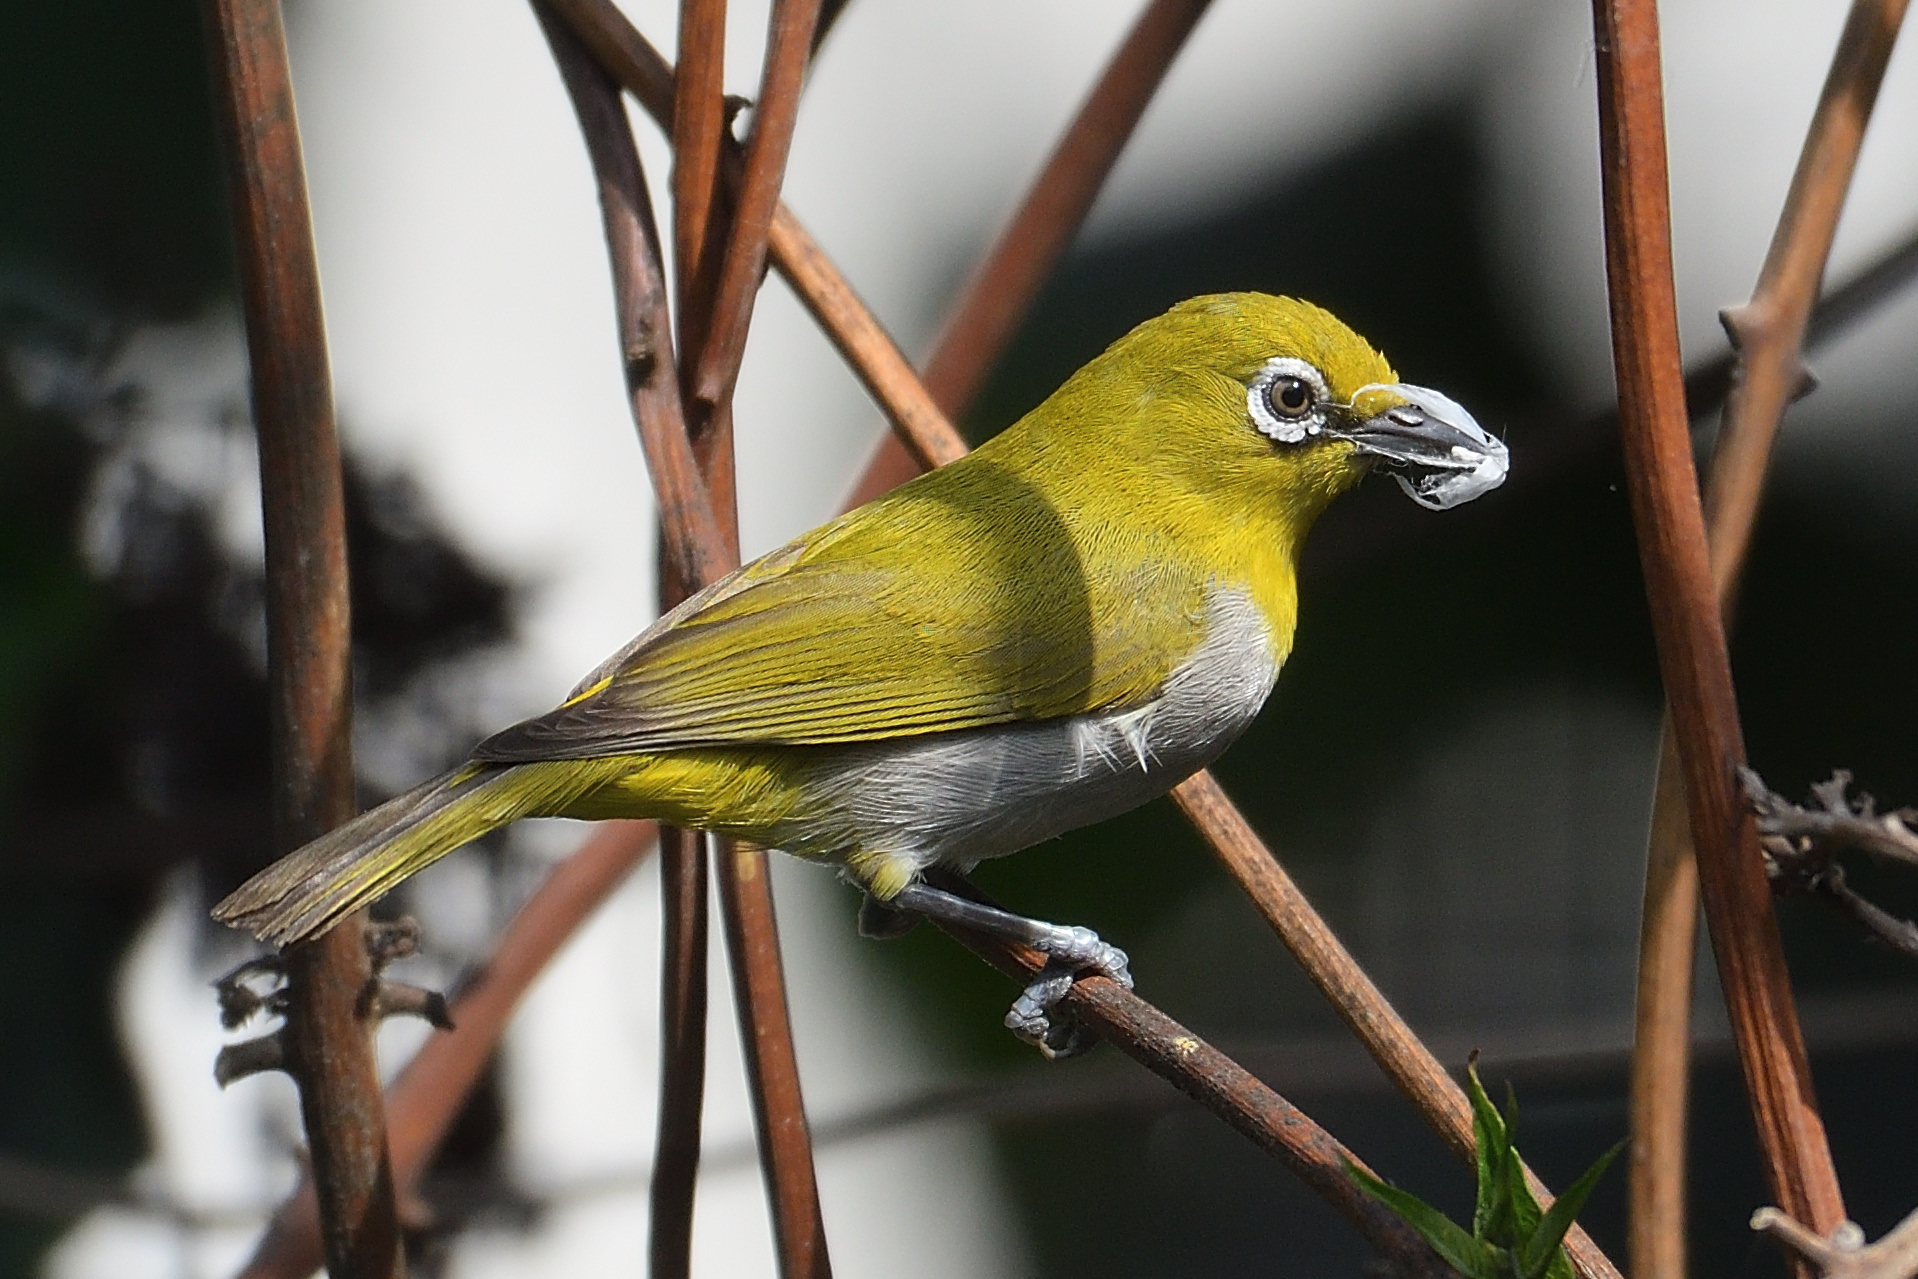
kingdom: Animalia
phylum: Chordata
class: Aves
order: Passeriformes
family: Zosteropidae
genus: Zosterops
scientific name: Zosterops palpebrosus
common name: Oriental white-eye
